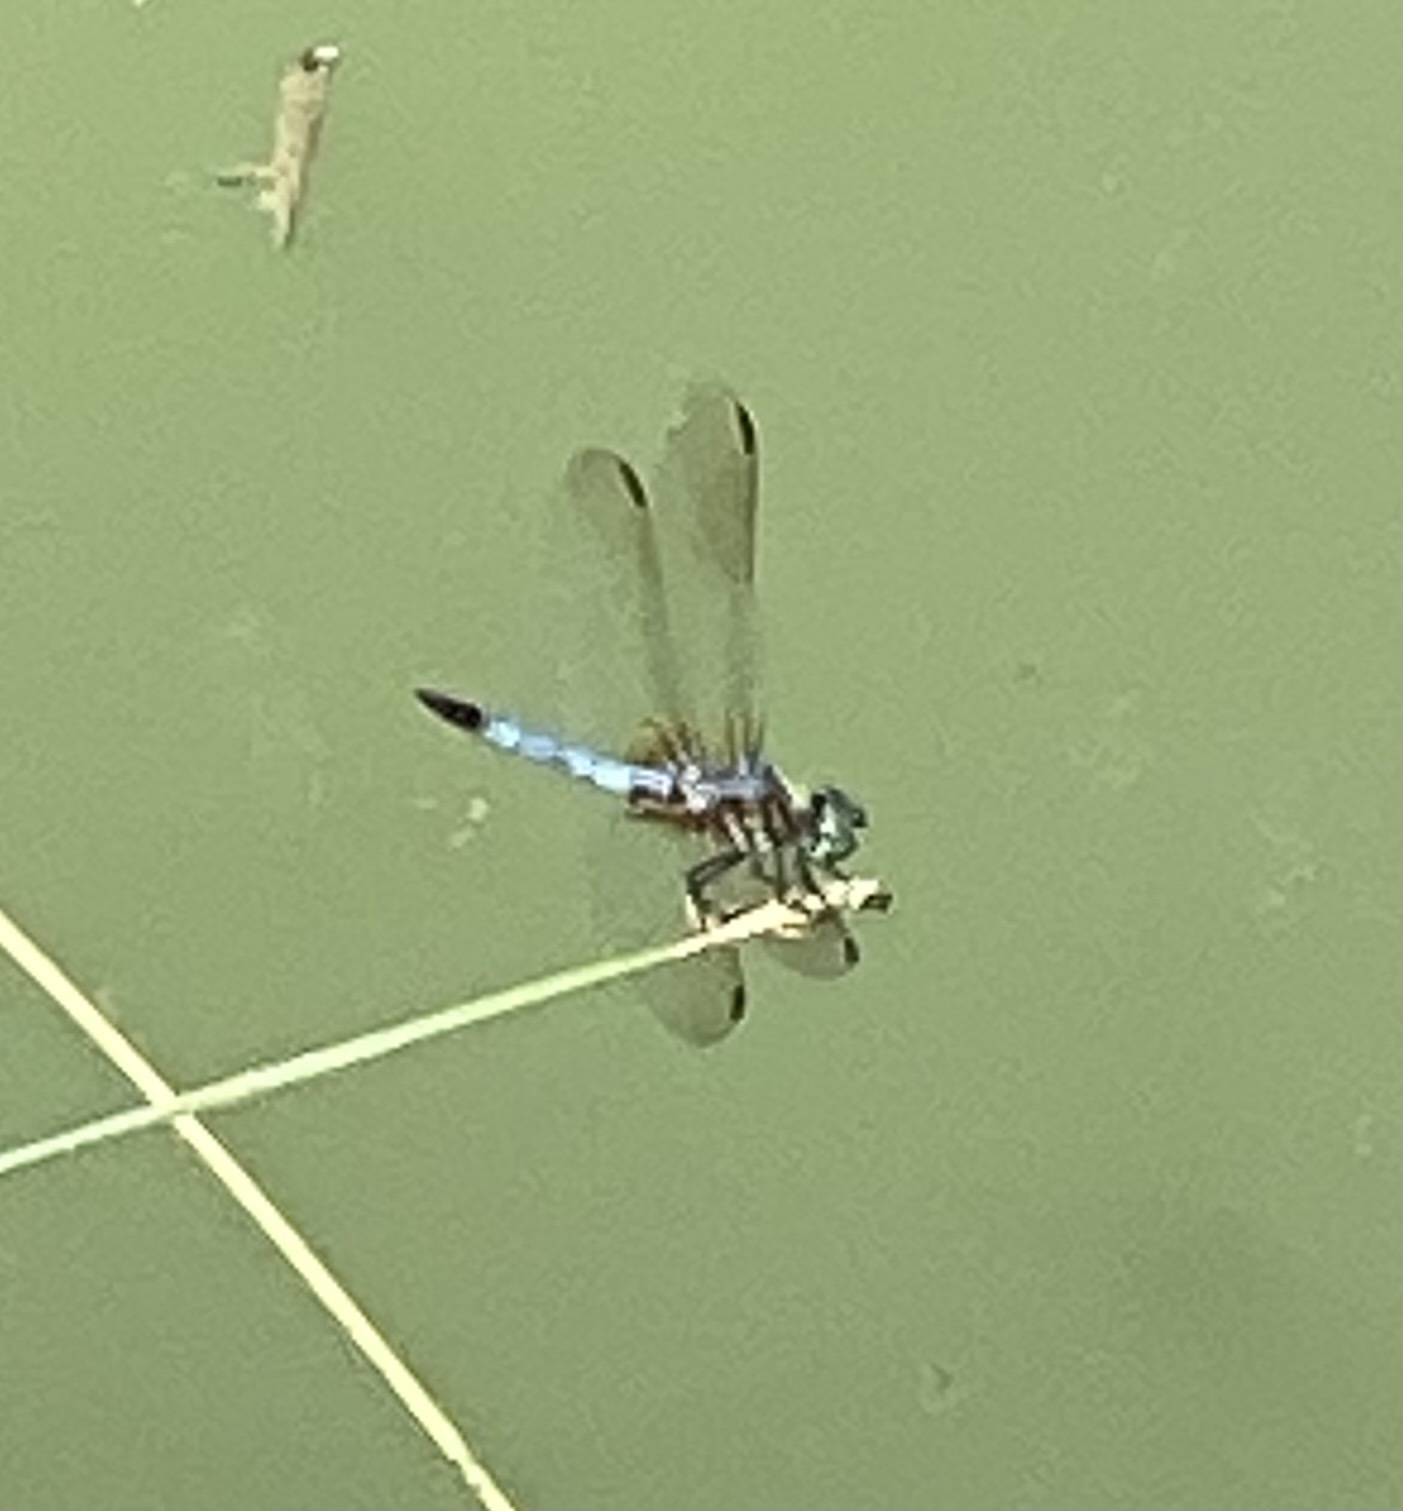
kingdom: Animalia
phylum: Arthropoda
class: Insecta
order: Odonata
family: Libellulidae
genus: Pachydiplax
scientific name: Pachydiplax longipennis
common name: Blue dasher
